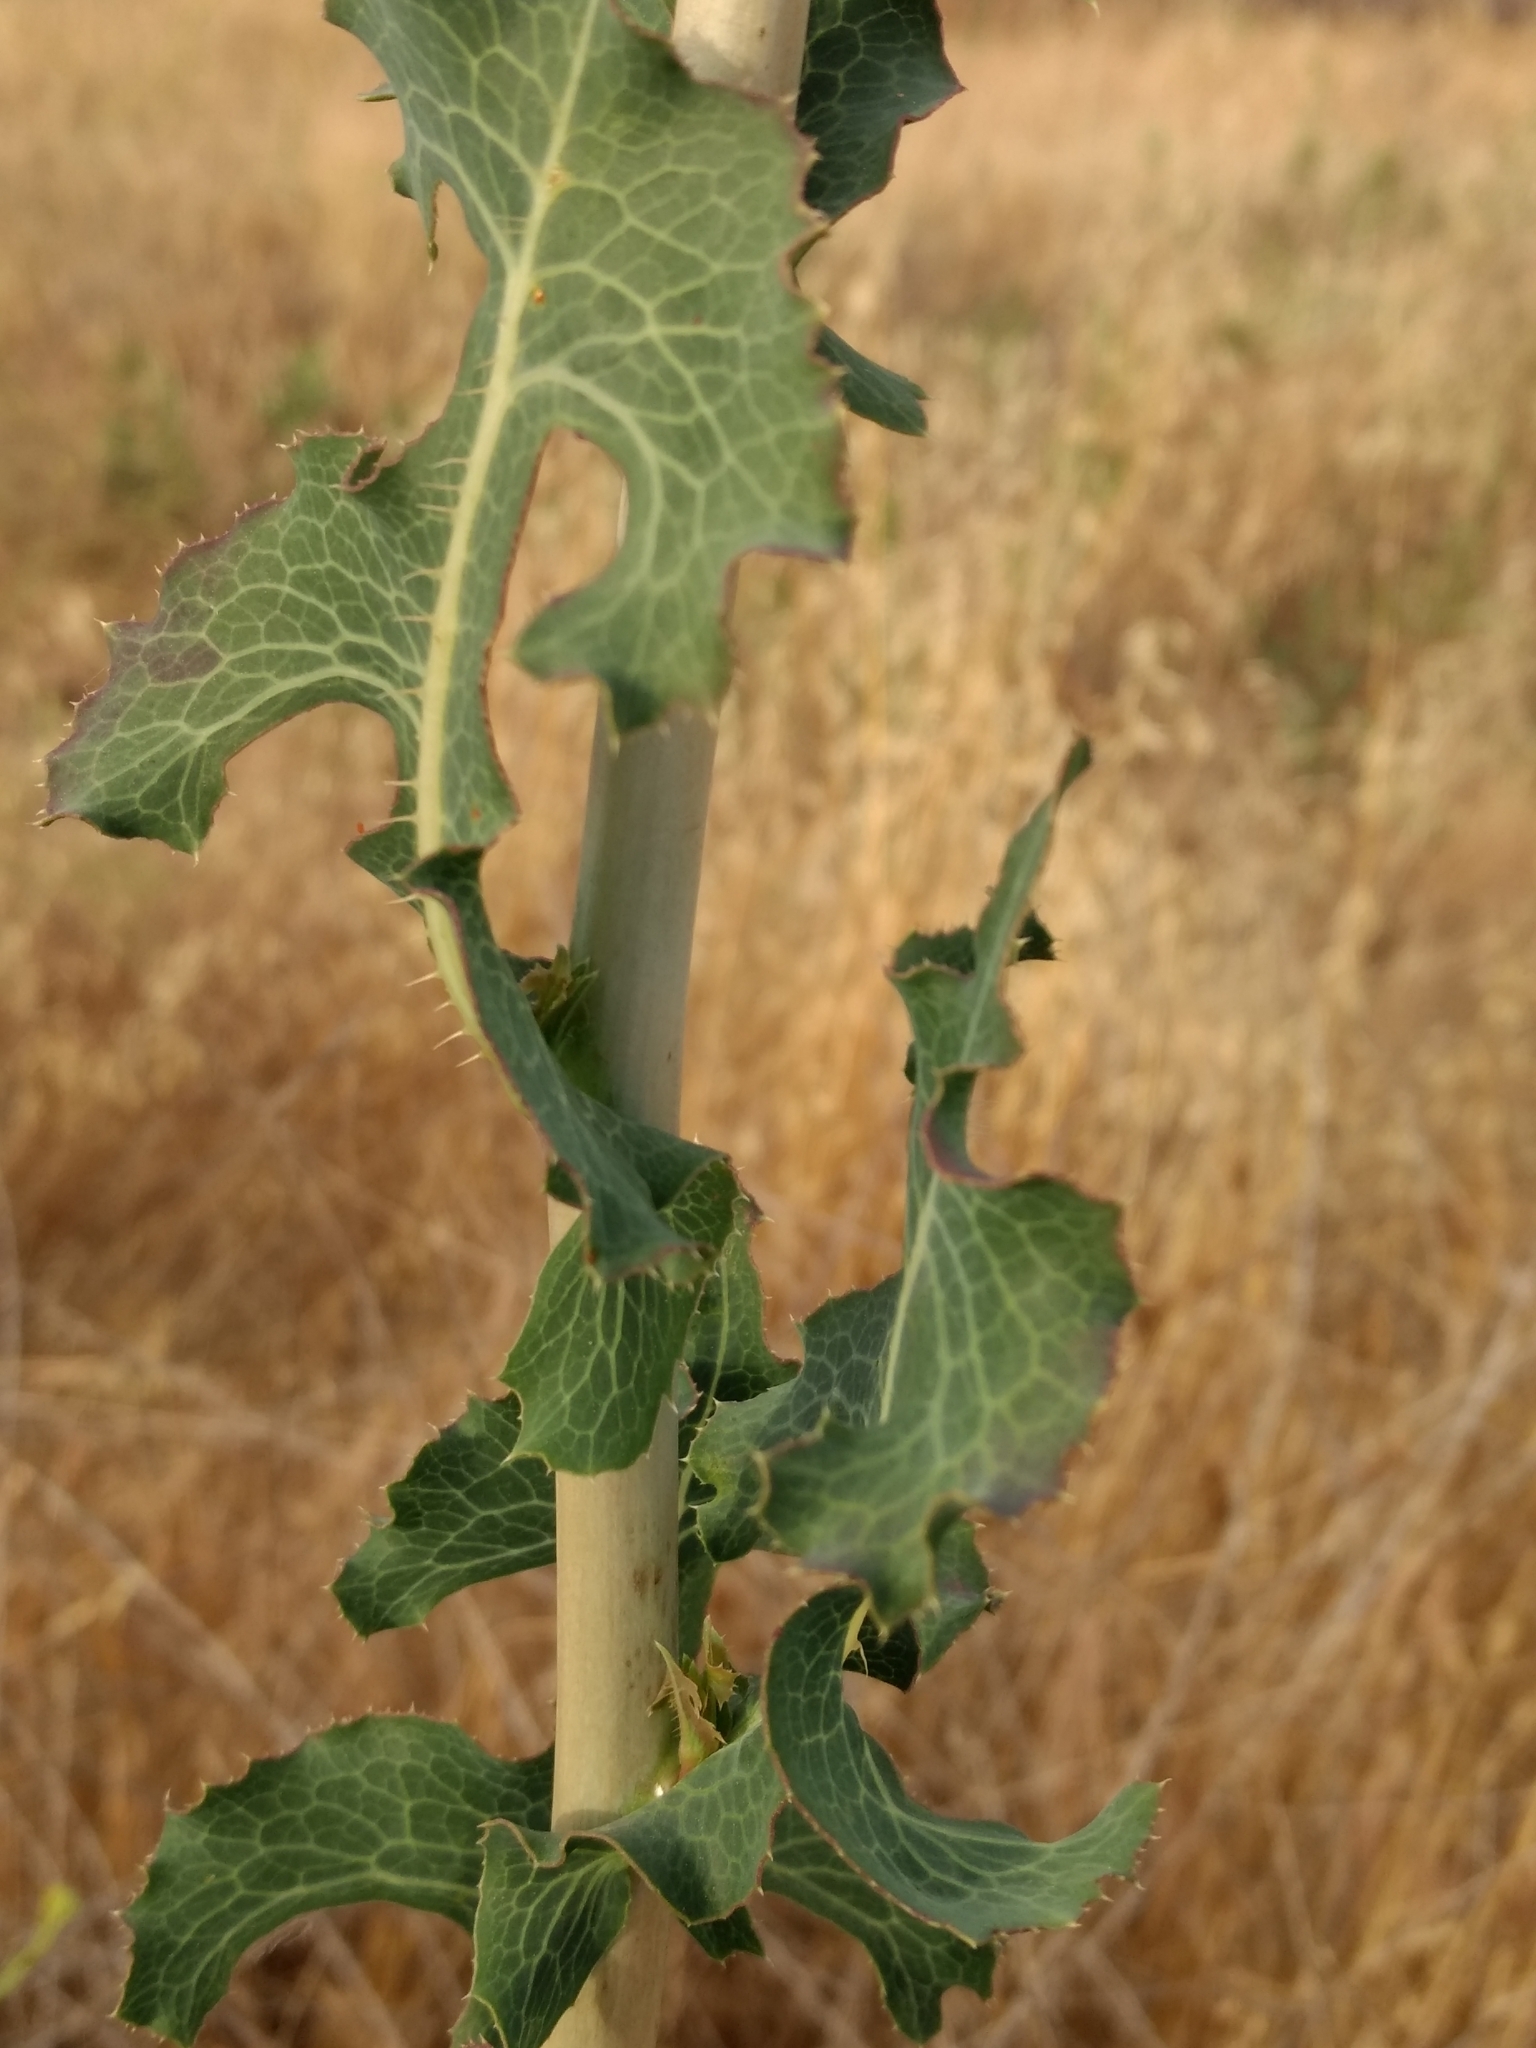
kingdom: Plantae
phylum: Tracheophyta
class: Magnoliopsida
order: Asterales
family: Asteraceae
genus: Lactuca
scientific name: Lactuca serriola
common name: Prickly lettuce
